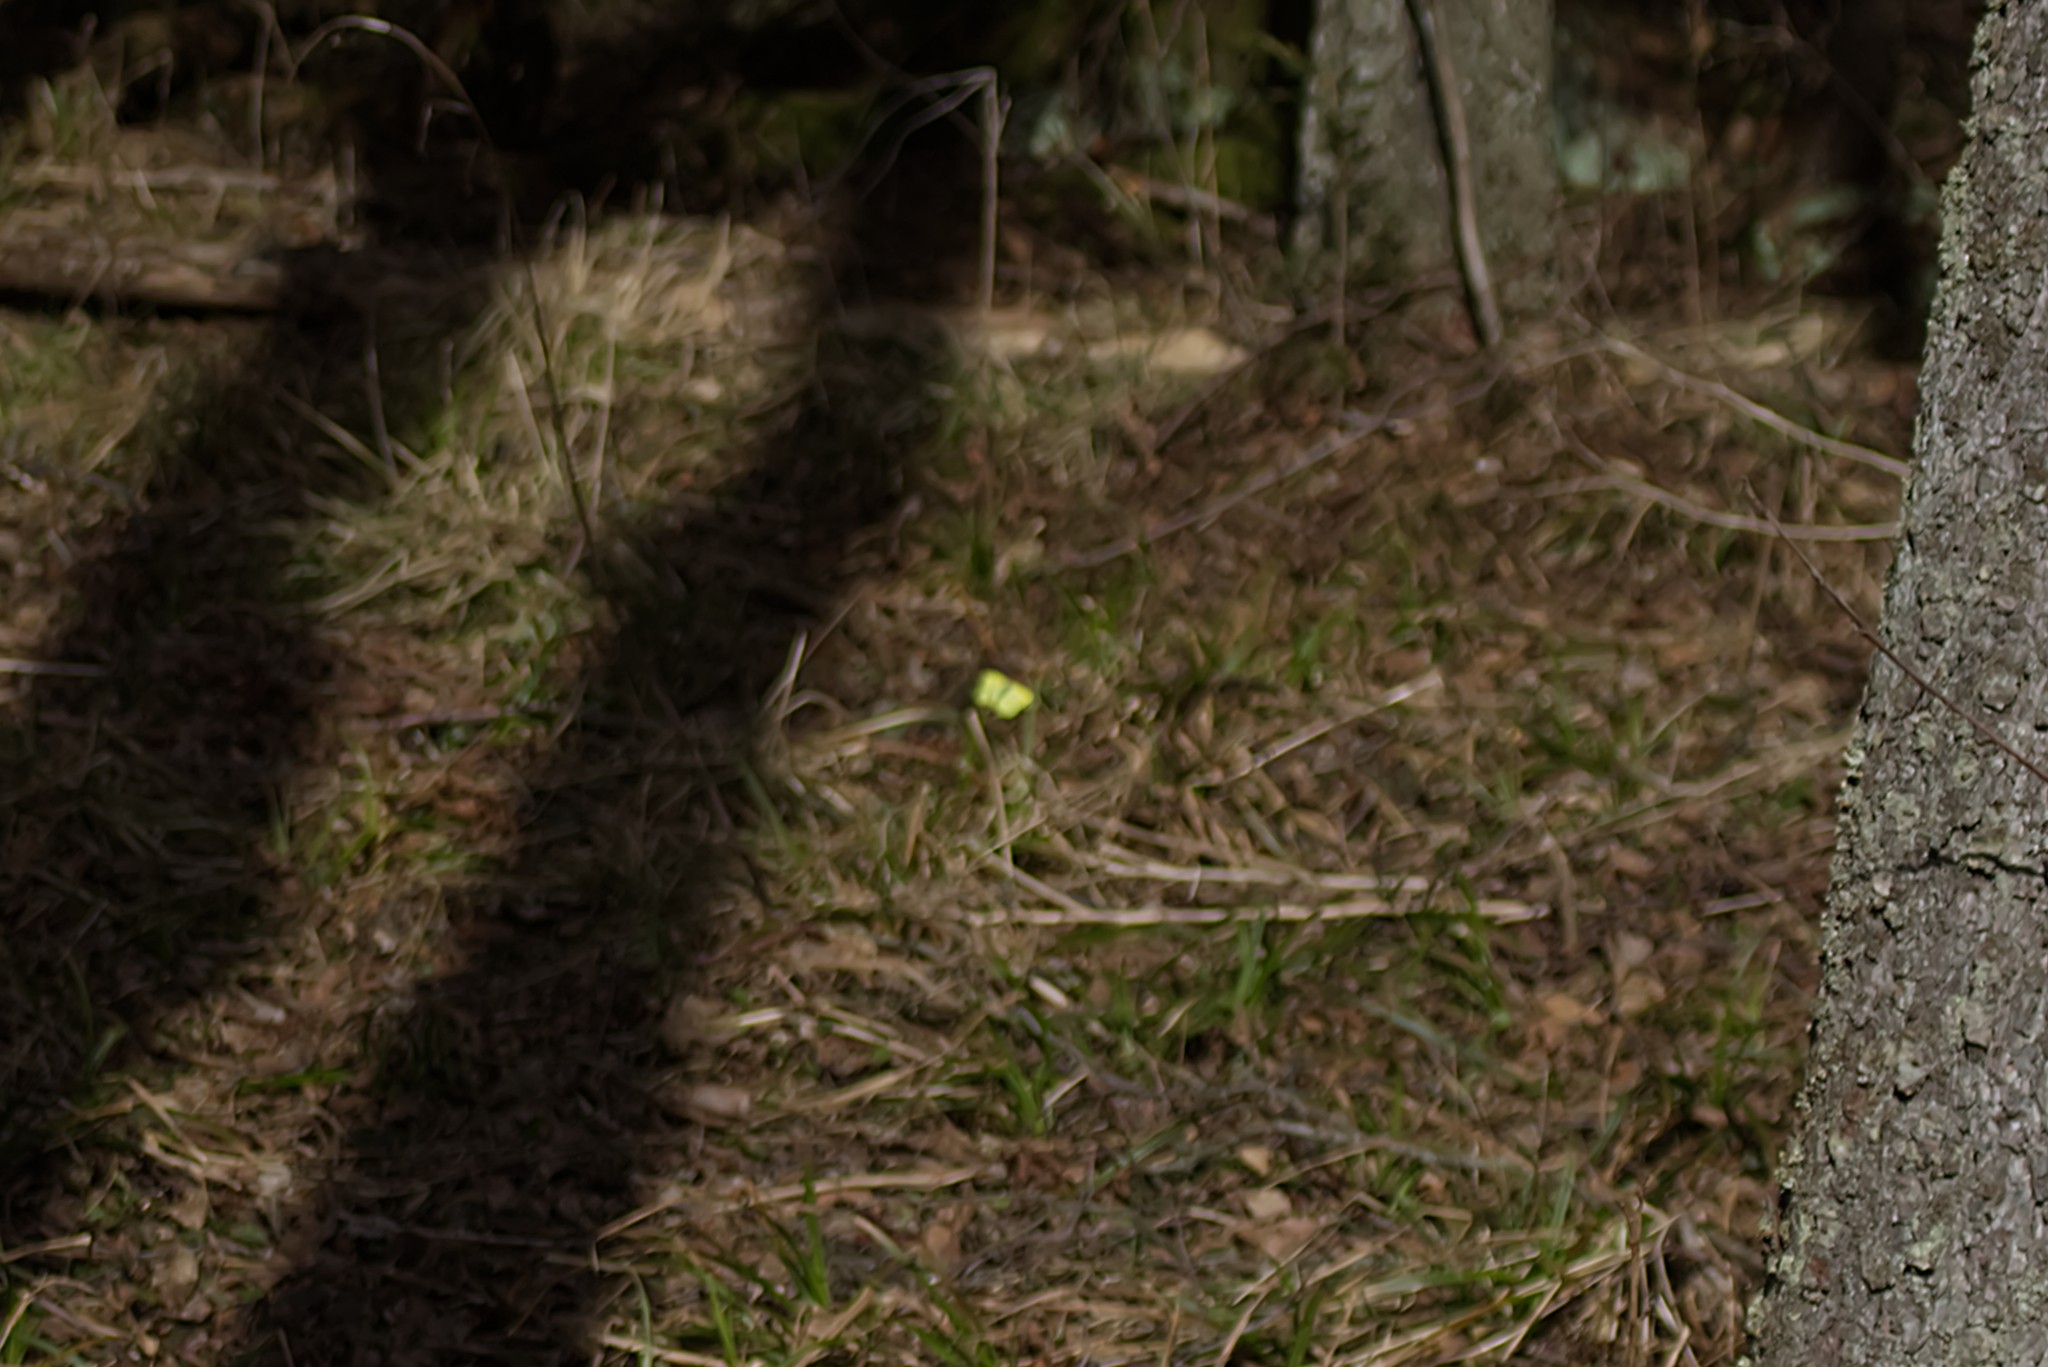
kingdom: Animalia
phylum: Arthropoda
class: Insecta
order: Lepidoptera
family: Pieridae
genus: Gonepteryx
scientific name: Gonepteryx rhamni
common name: Brimstone
